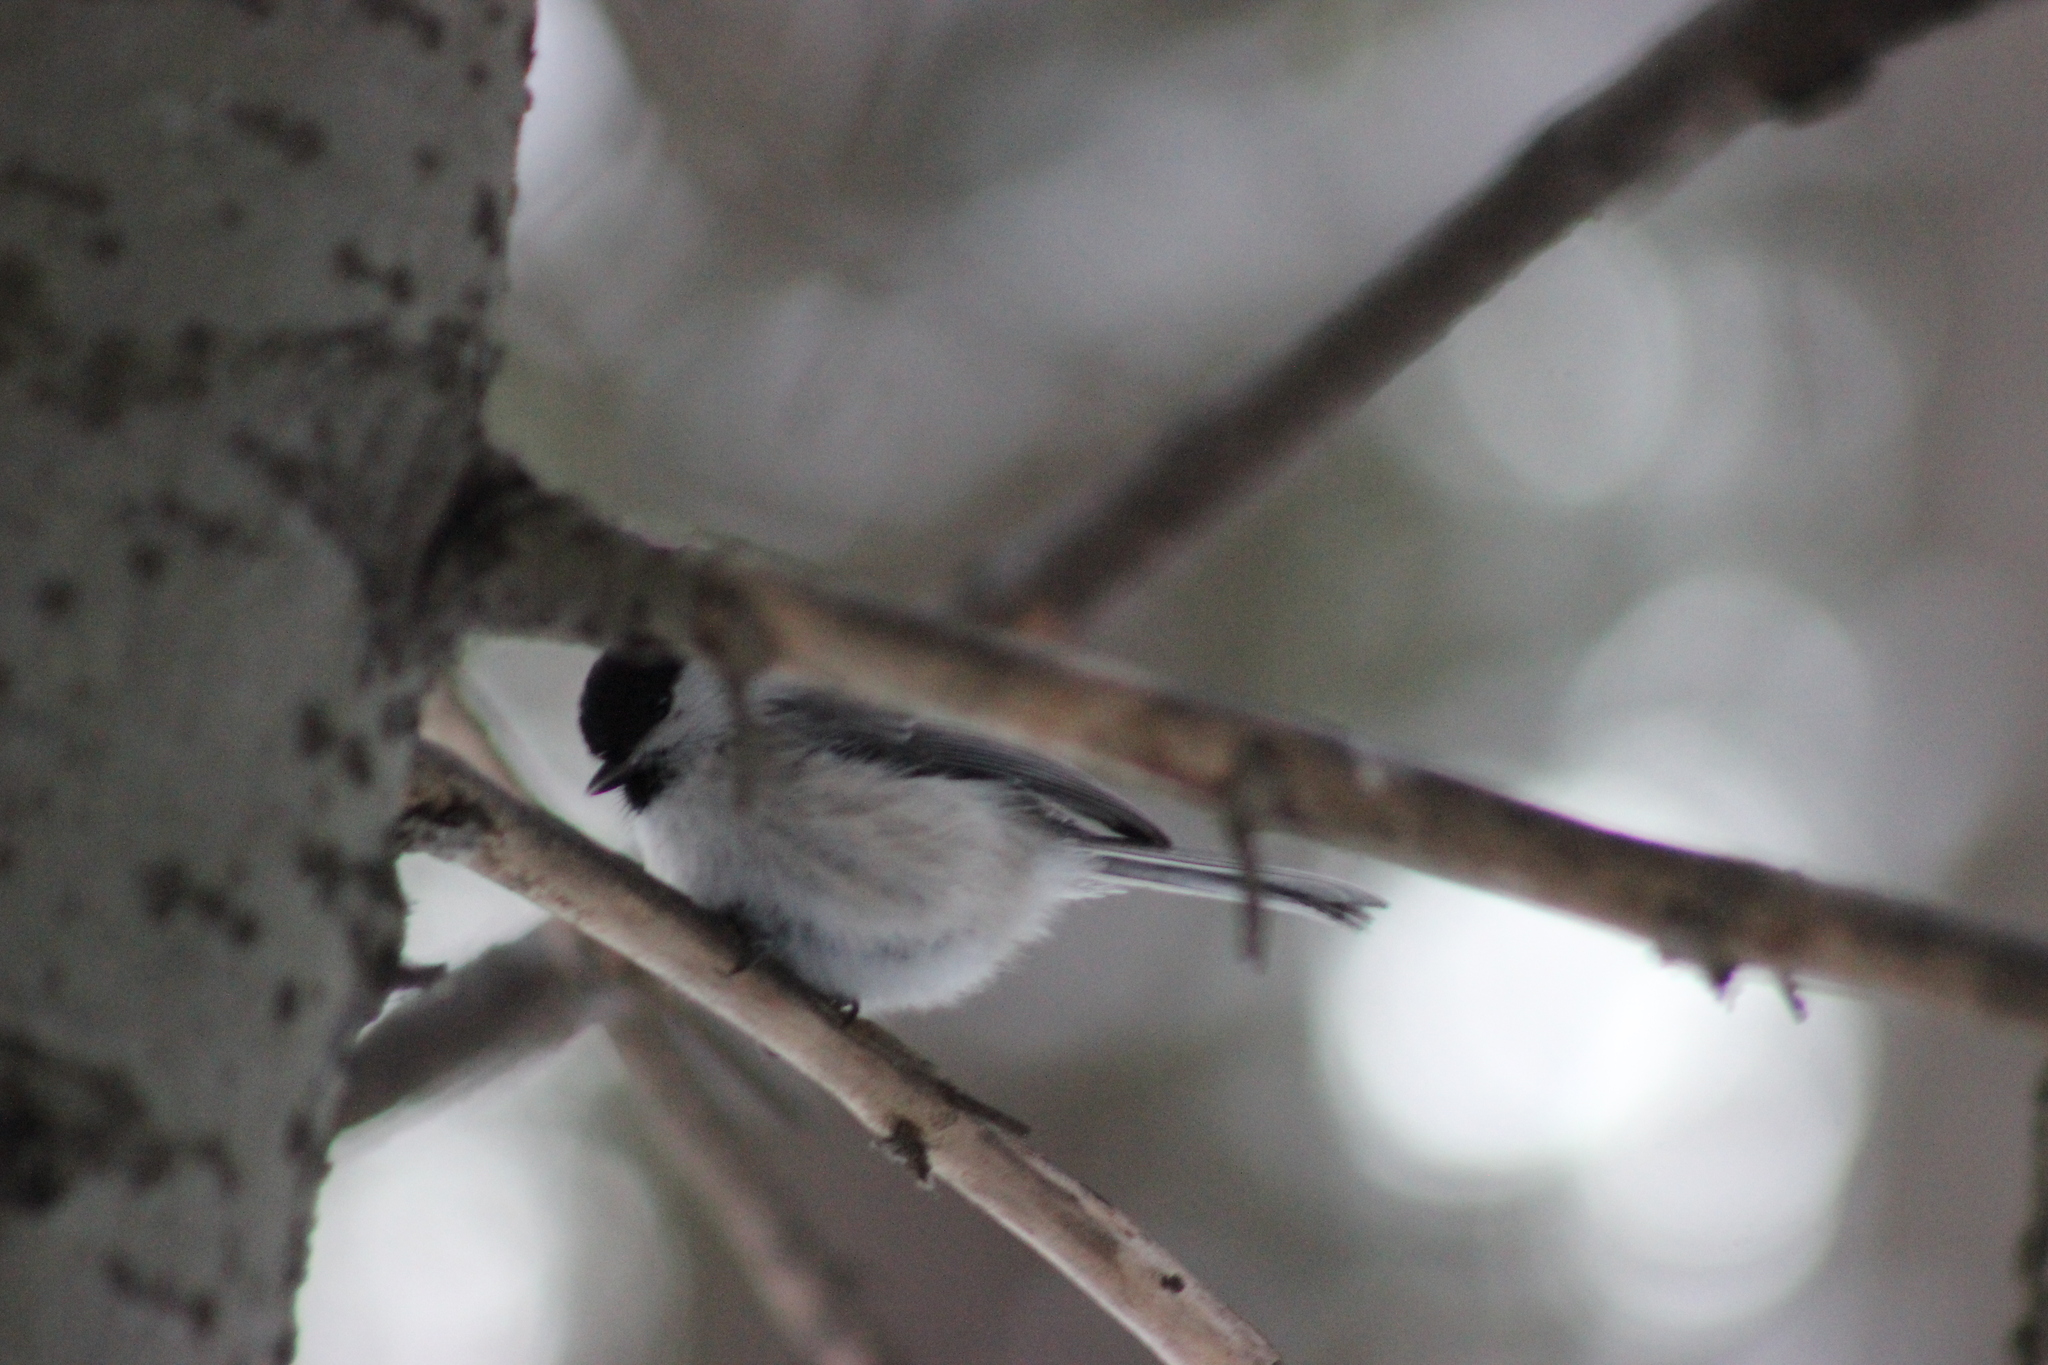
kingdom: Animalia
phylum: Chordata
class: Aves
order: Passeriformes
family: Paridae
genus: Poecile
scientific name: Poecile montanus
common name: Willow tit
